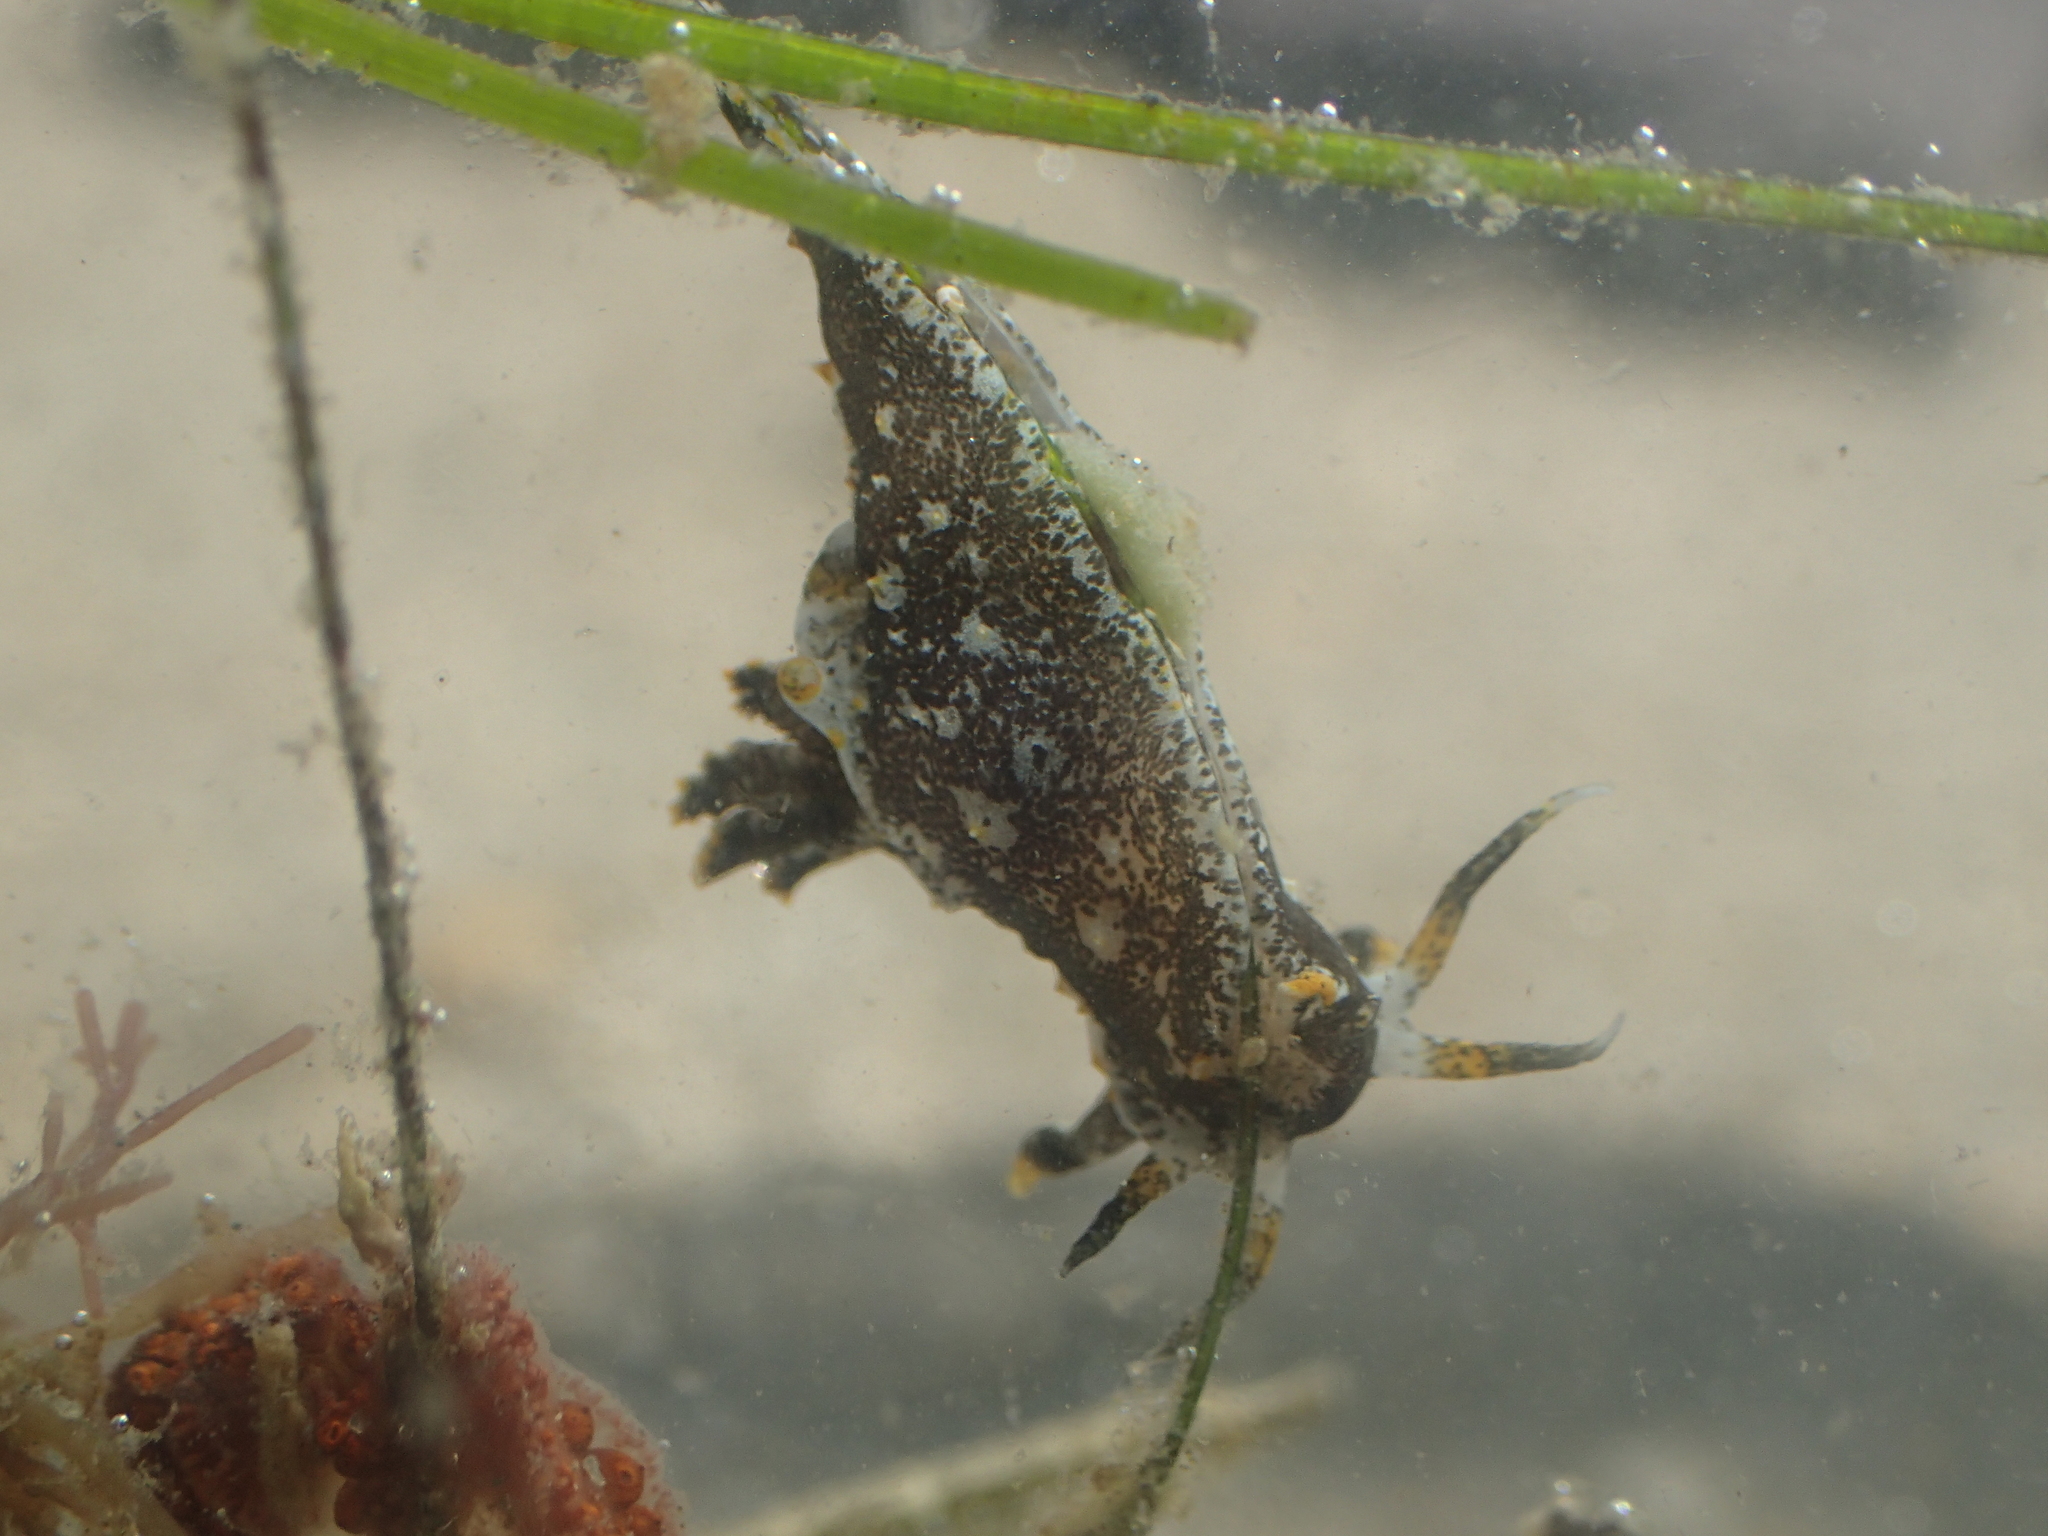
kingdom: Animalia
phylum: Mollusca
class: Gastropoda
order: Nudibranchia
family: Polyceridae
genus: Polycera
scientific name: Polycera hedgpethi
